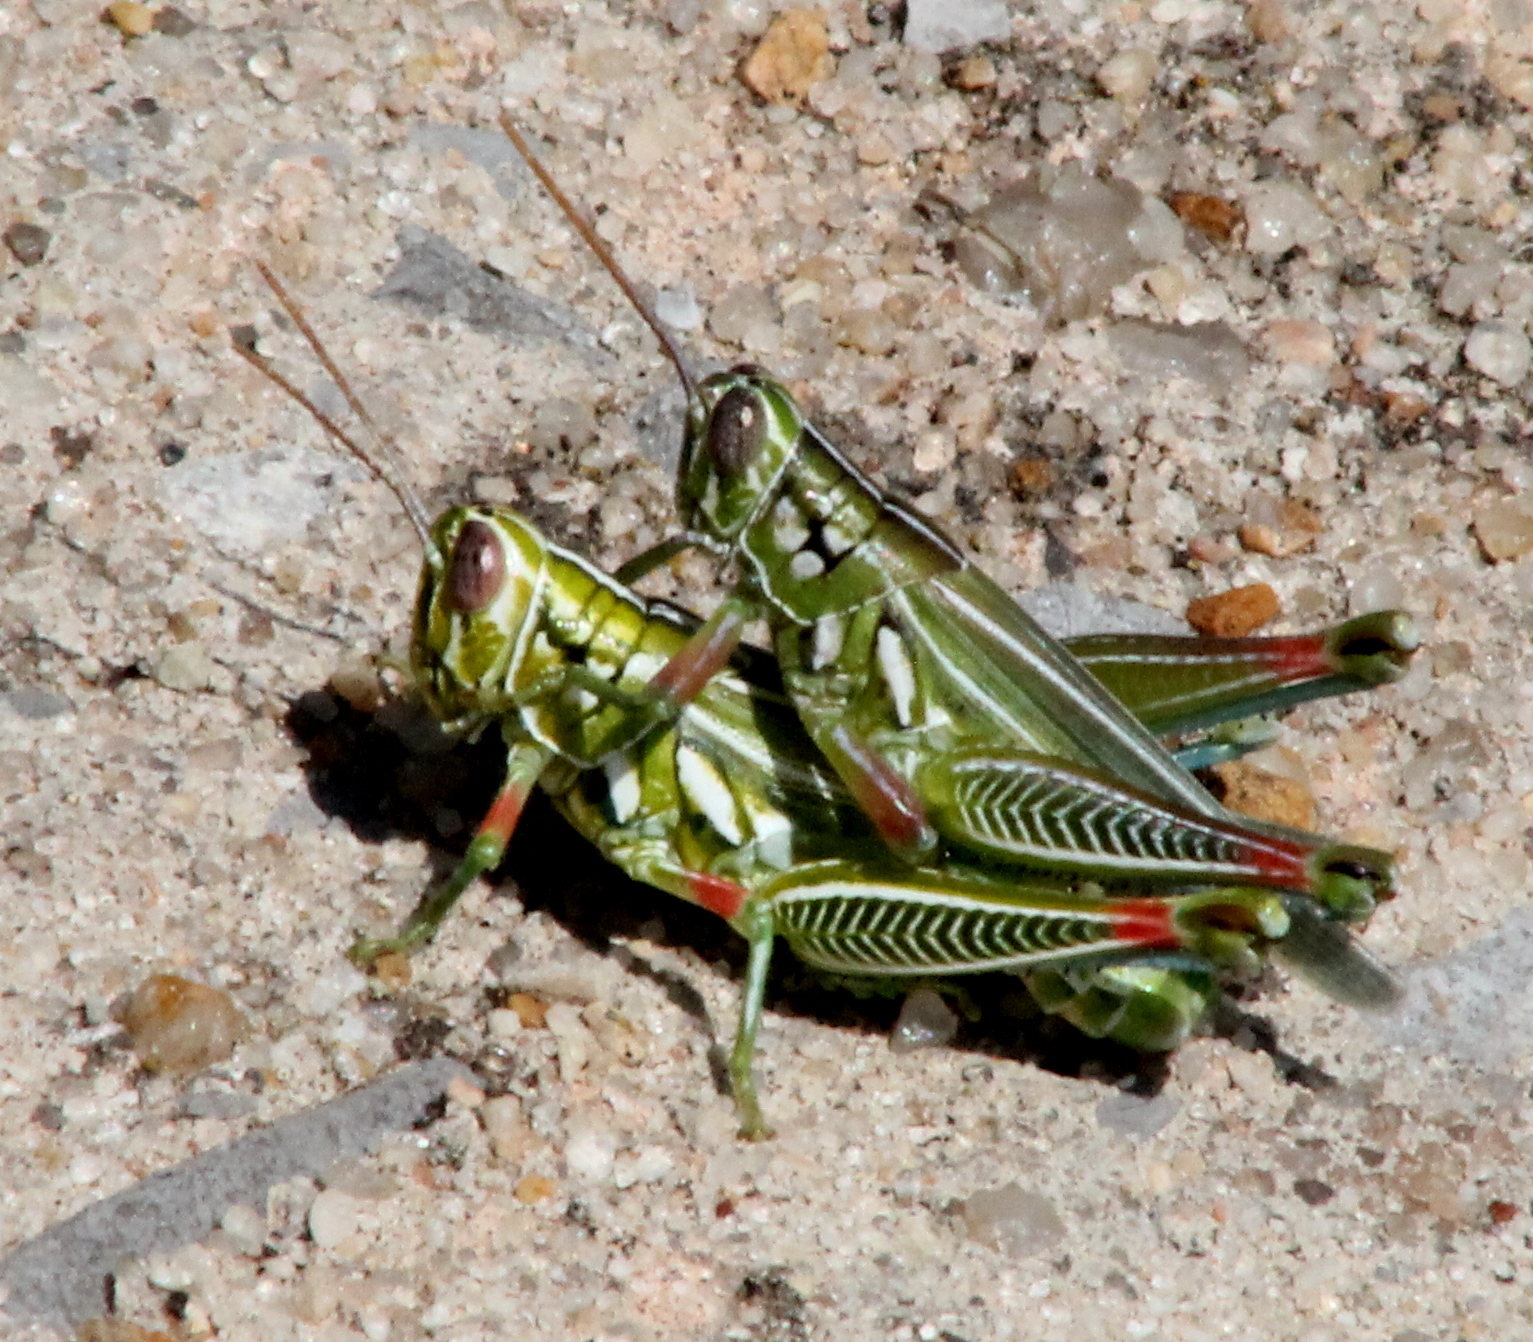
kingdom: Animalia
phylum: Arthropoda
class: Insecta
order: Orthoptera
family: Acrididae
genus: Hesperotettix
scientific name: Hesperotettix viridis
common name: Meadow purple-striped grasshopper
